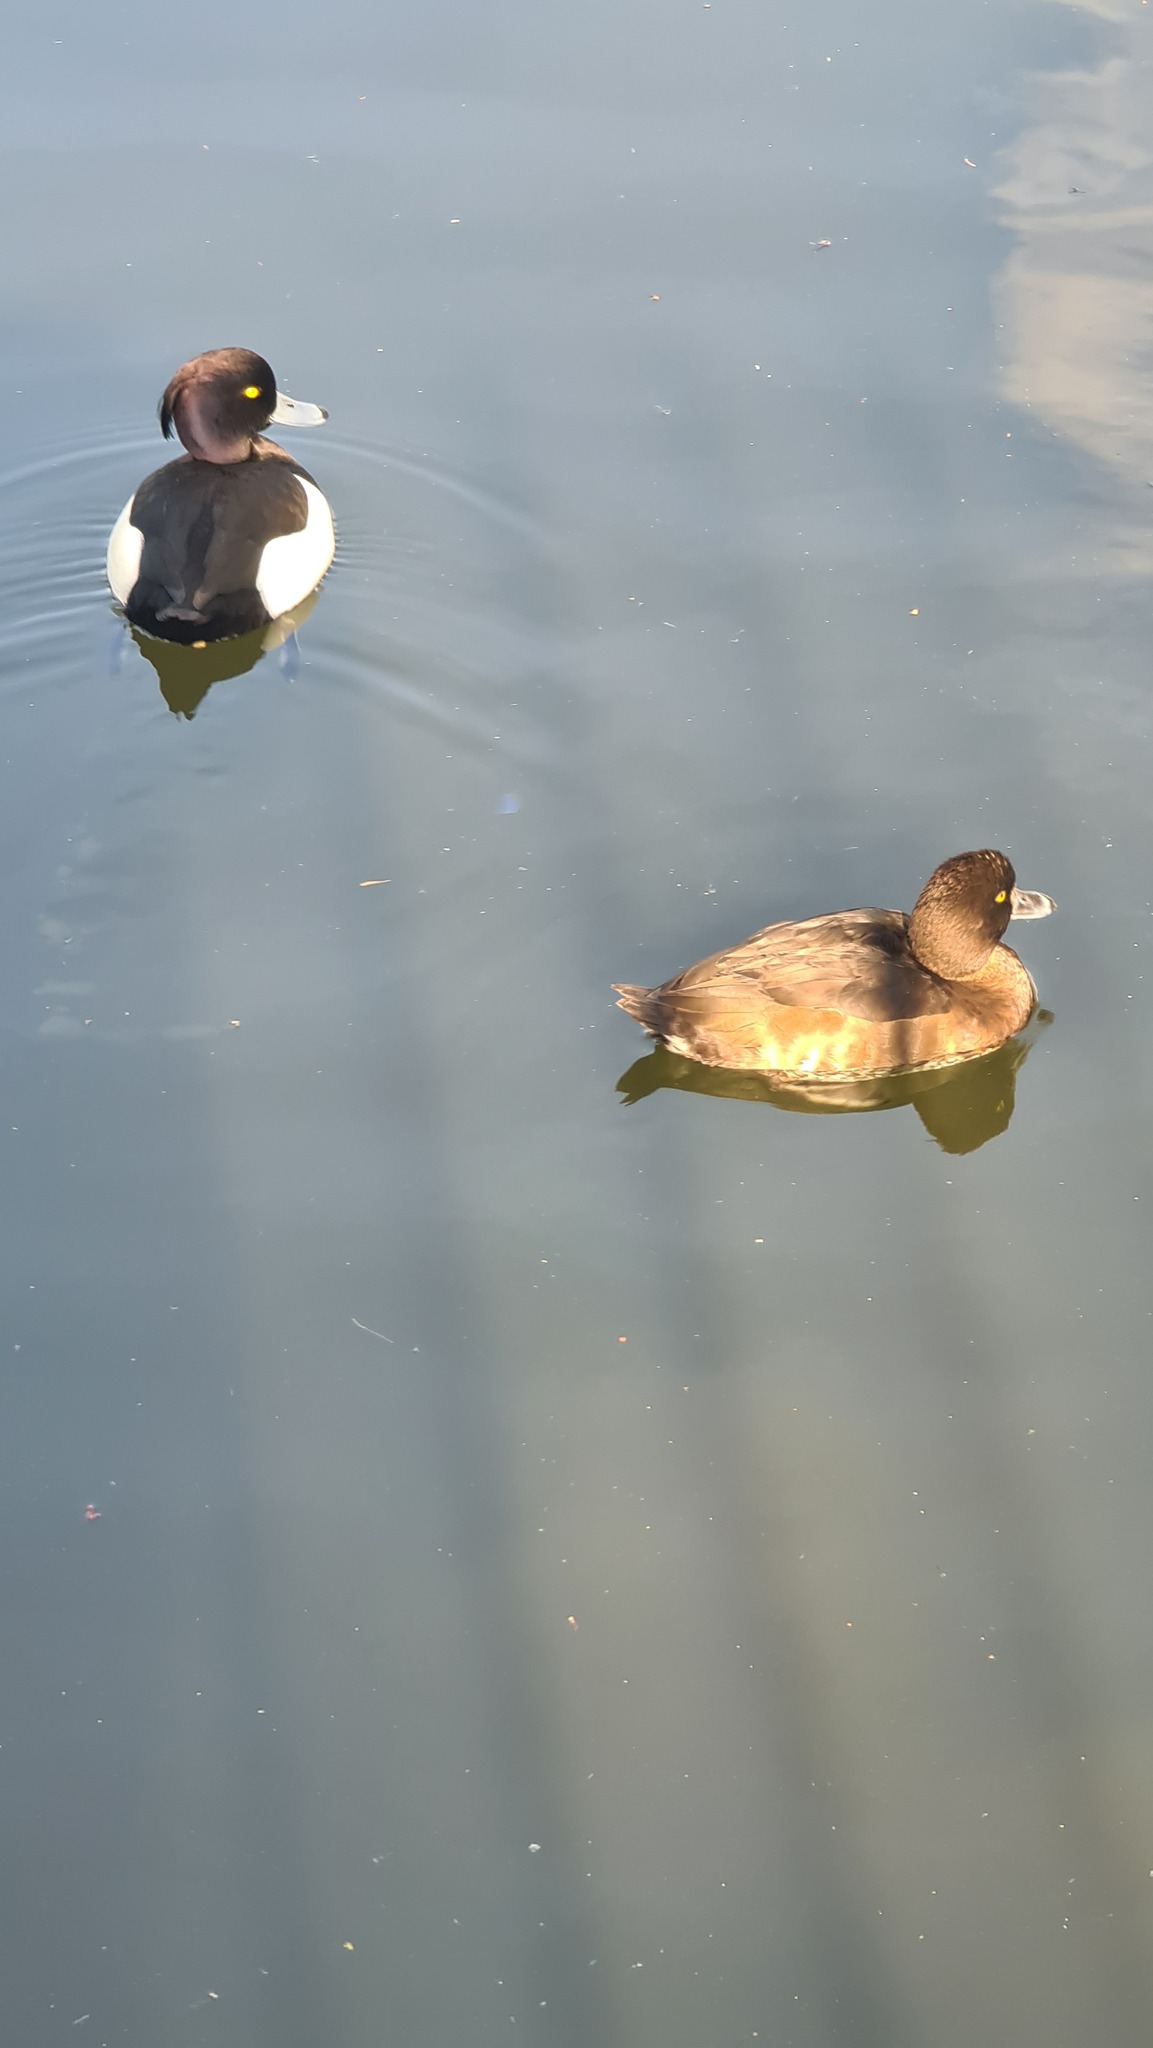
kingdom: Animalia
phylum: Chordata
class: Aves
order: Anseriformes
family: Anatidae
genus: Aythya
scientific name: Aythya fuligula
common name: Tufted duck
